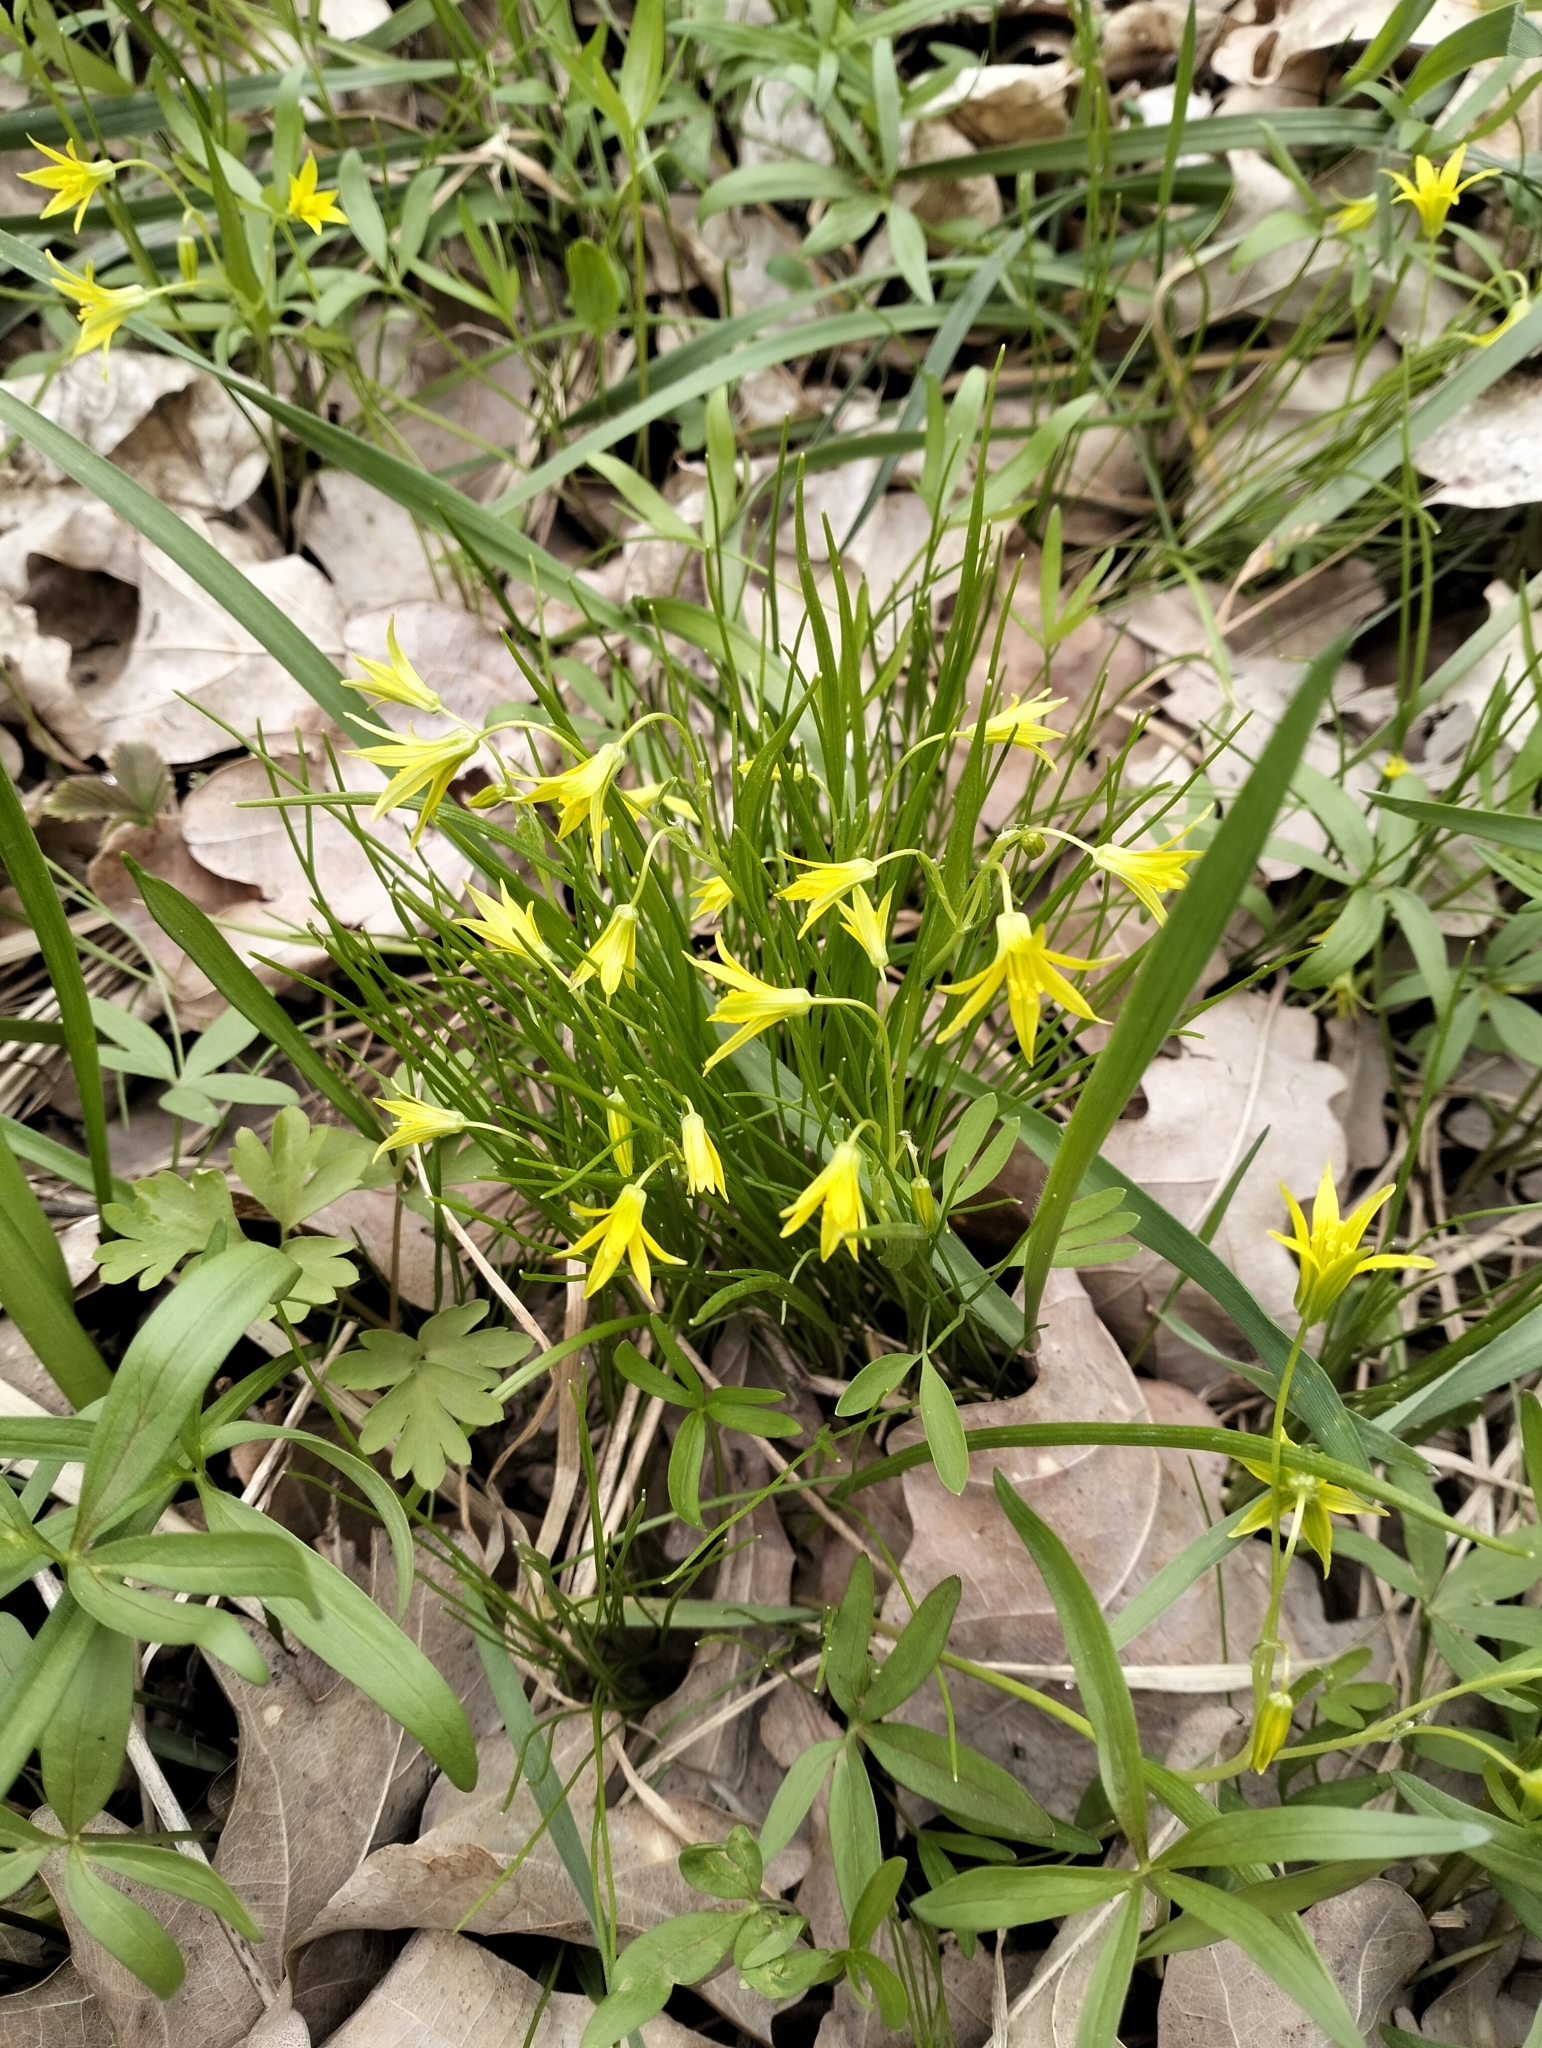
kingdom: Plantae
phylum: Tracheophyta
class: Liliopsida
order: Liliales
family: Liliaceae
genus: Gagea
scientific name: Gagea minima
